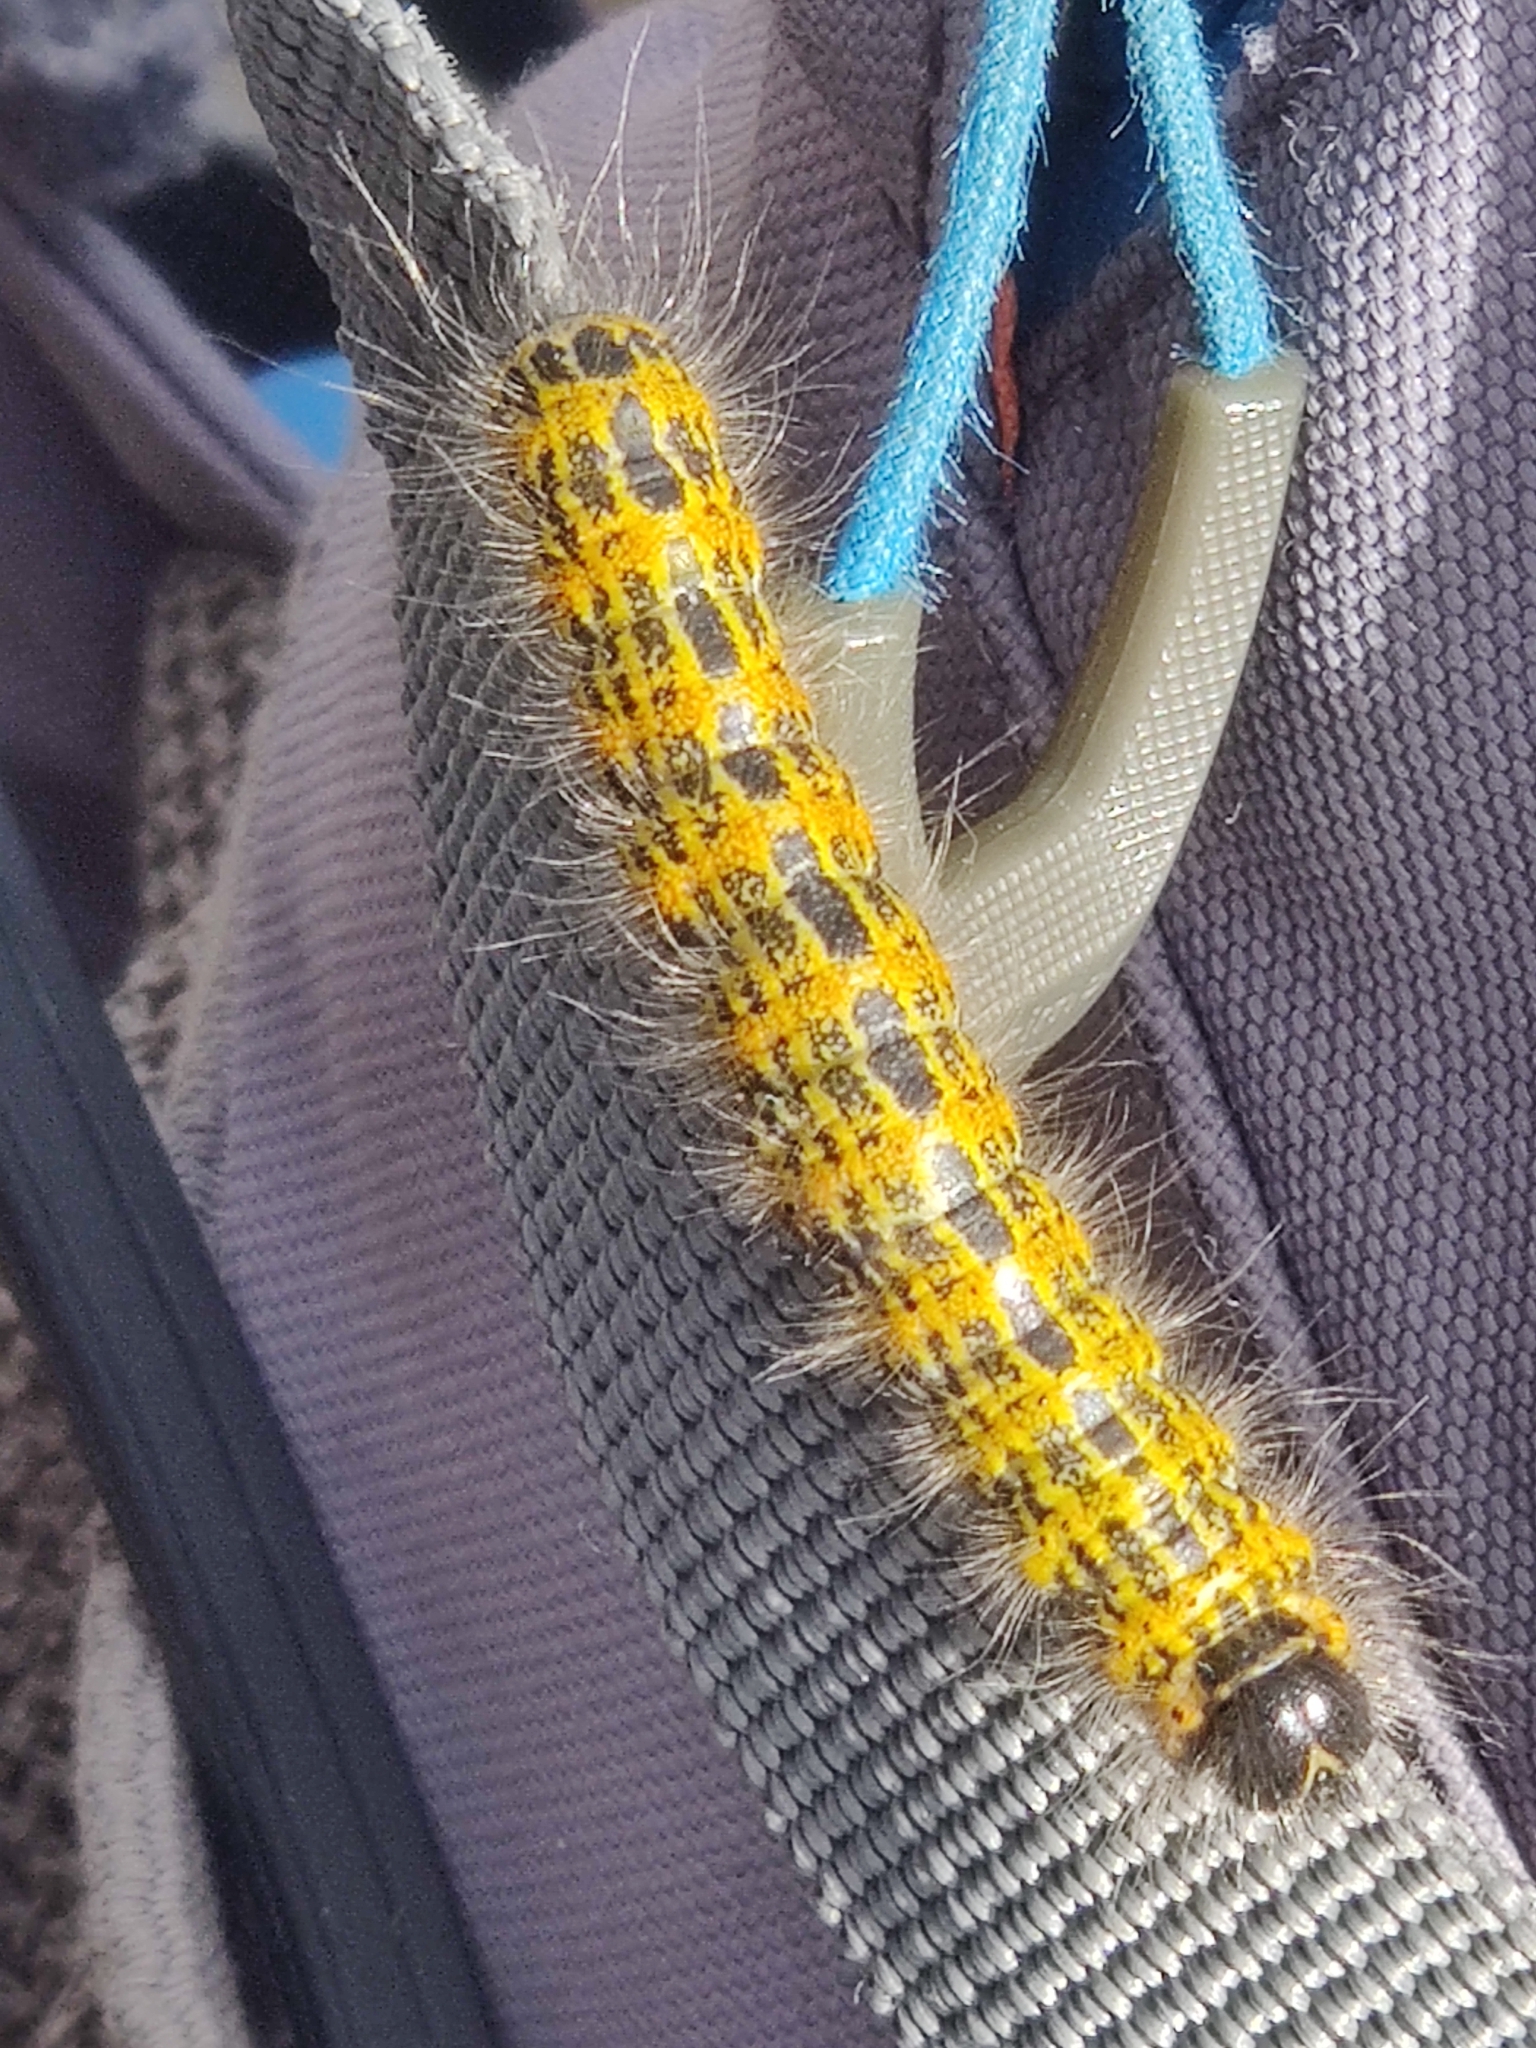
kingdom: Animalia
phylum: Arthropoda
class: Insecta
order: Lepidoptera
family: Notodontidae
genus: Phalera
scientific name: Phalera bucephala
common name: Buff-tip
